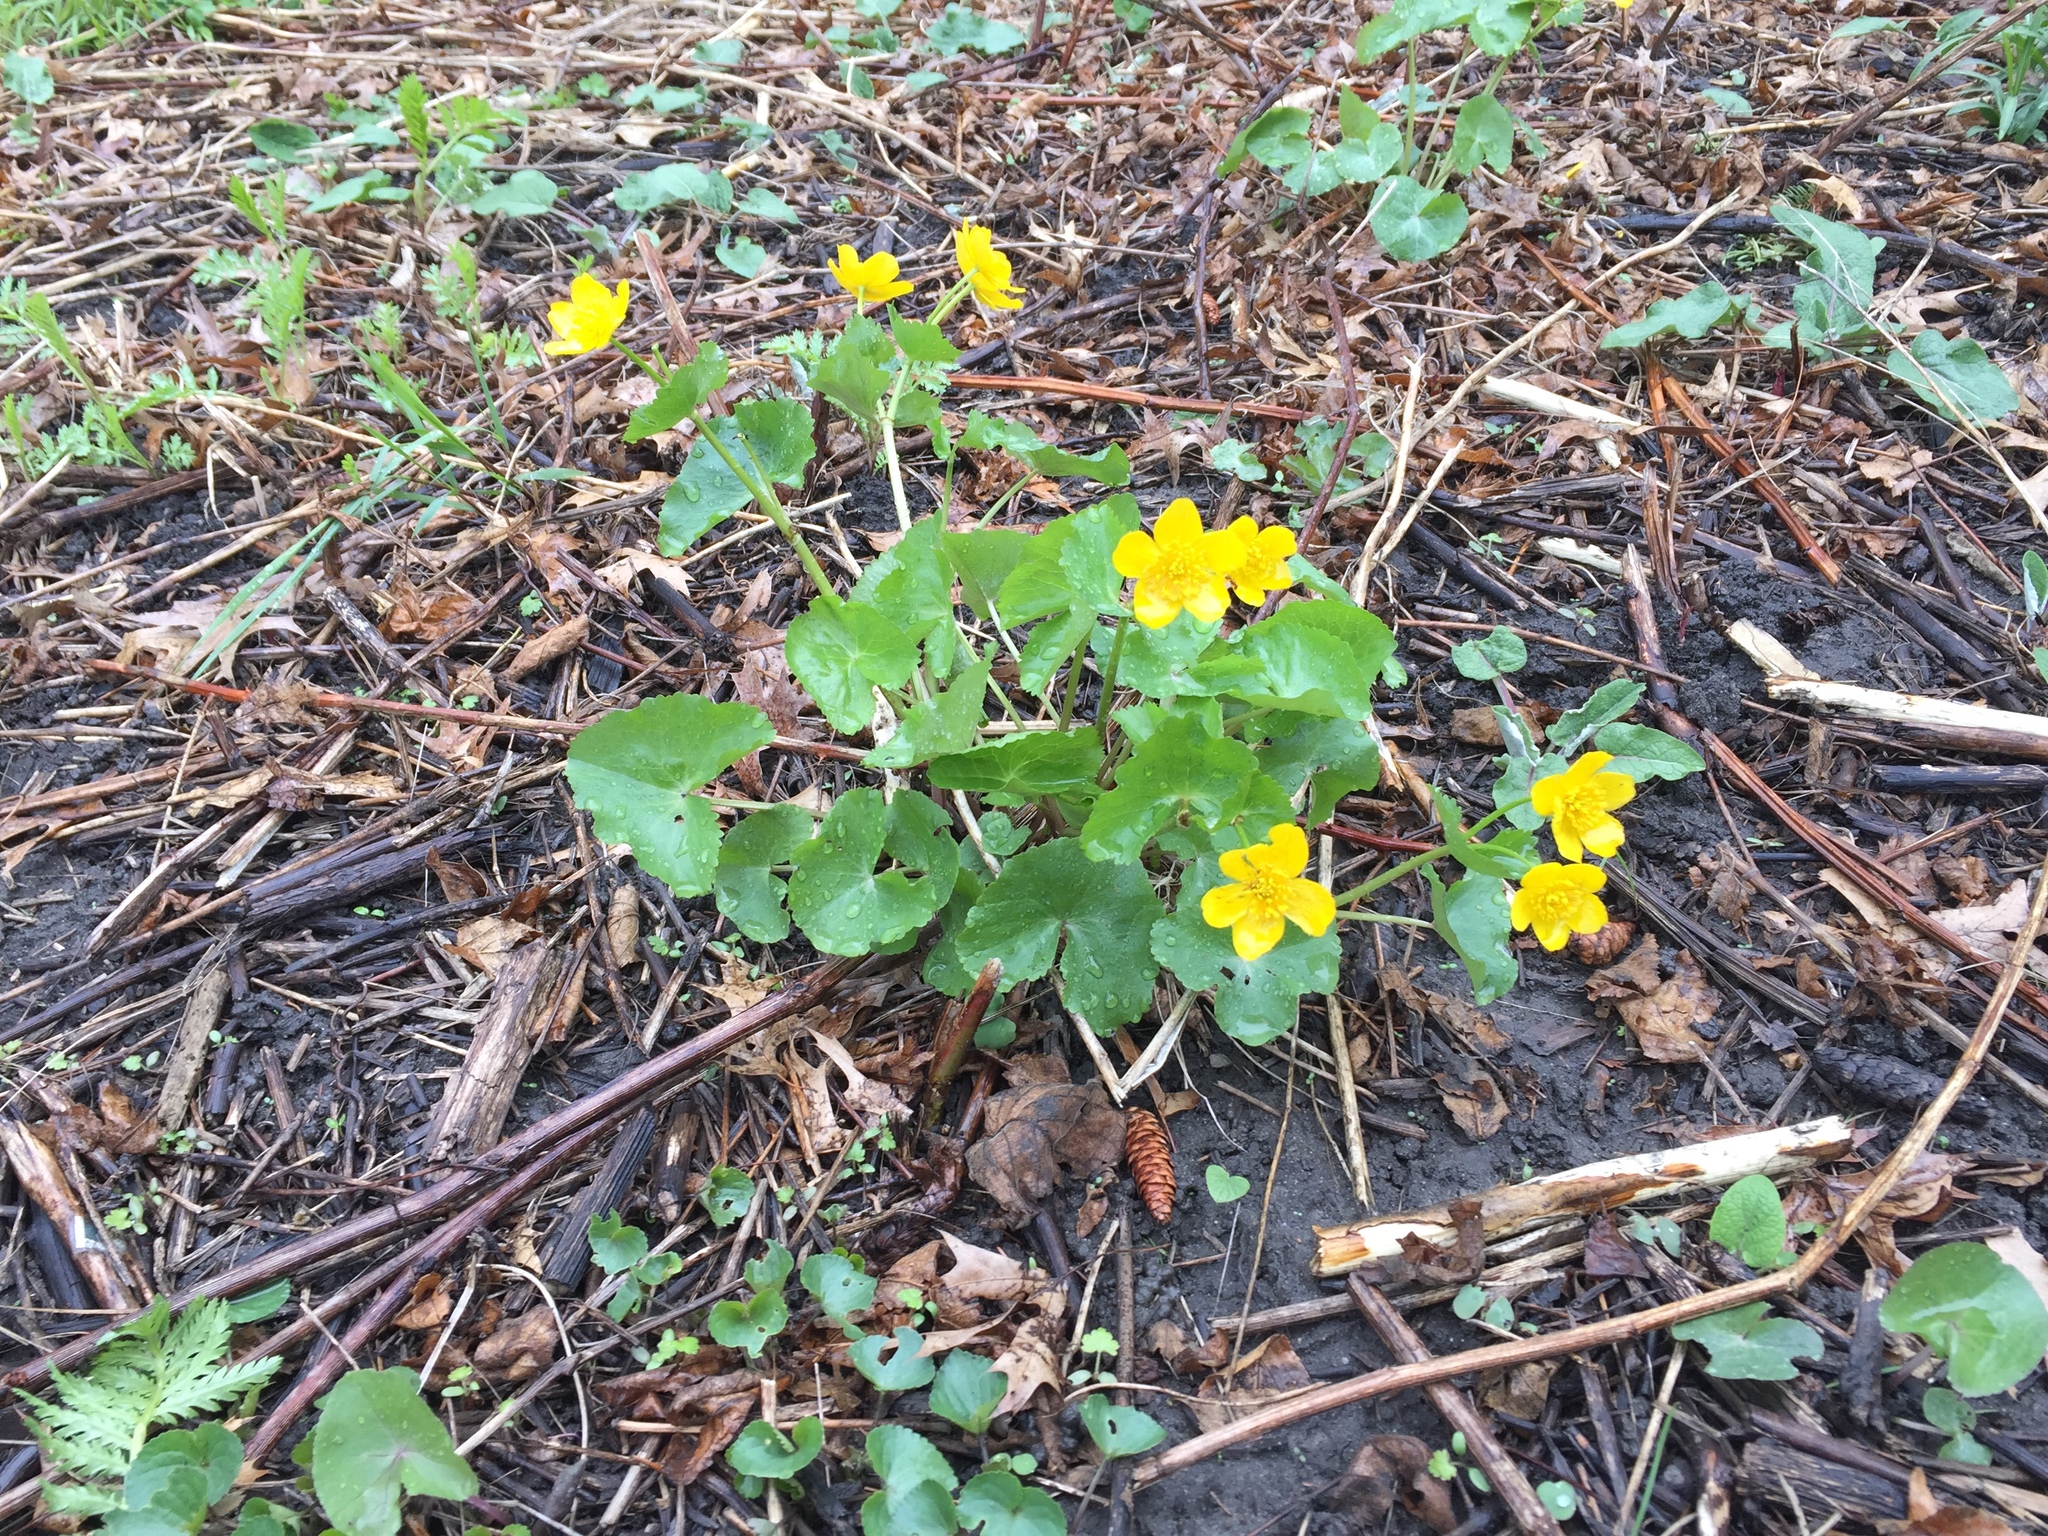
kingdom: Plantae
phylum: Tracheophyta
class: Magnoliopsida
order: Ranunculales
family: Ranunculaceae
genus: Caltha
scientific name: Caltha palustris
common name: Marsh marigold
